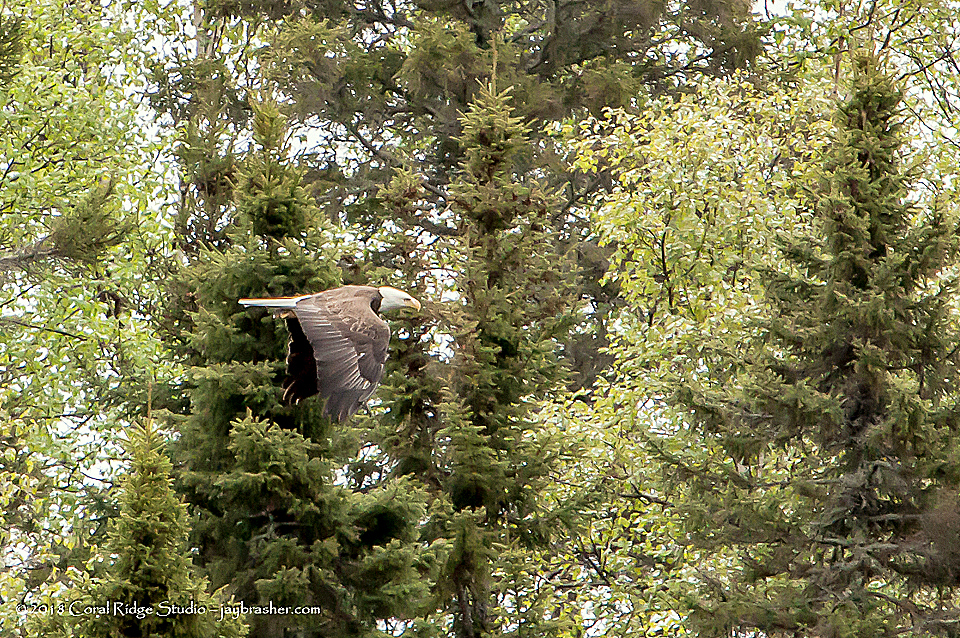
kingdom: Animalia
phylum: Chordata
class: Aves
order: Accipitriformes
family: Accipitridae
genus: Haliaeetus
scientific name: Haliaeetus leucocephalus
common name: Bald eagle
